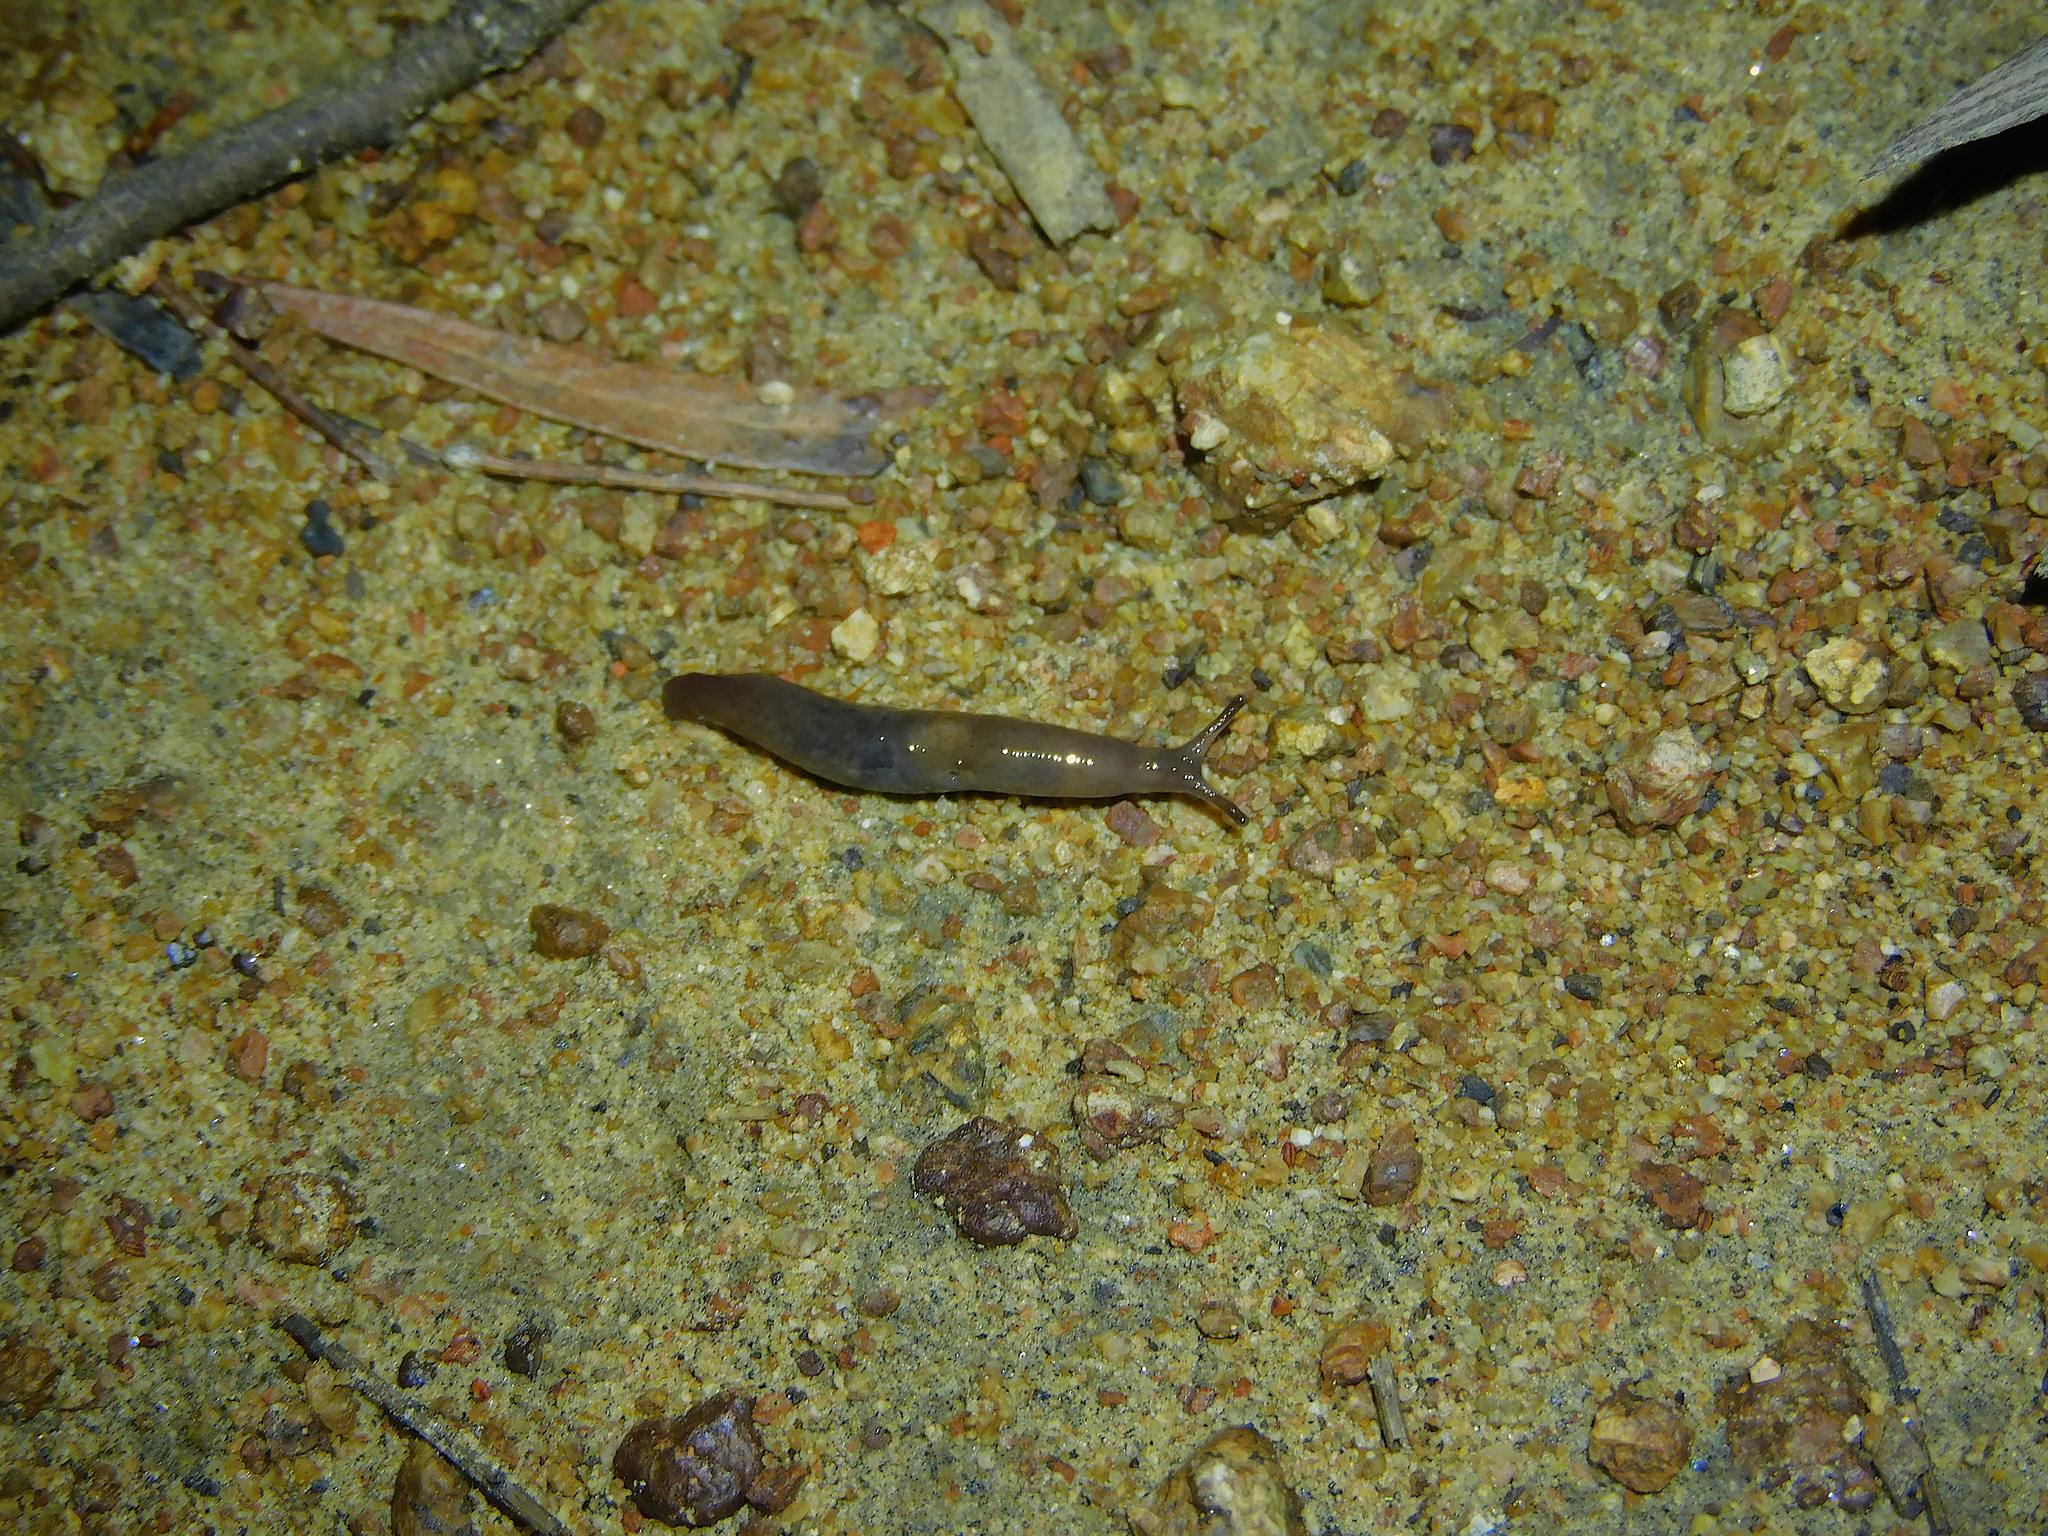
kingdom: Animalia
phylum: Mollusca
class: Gastropoda
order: Stylommatophora
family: Agriolimacidae
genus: Deroceras
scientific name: Deroceras invadens
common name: Caruana's slug
